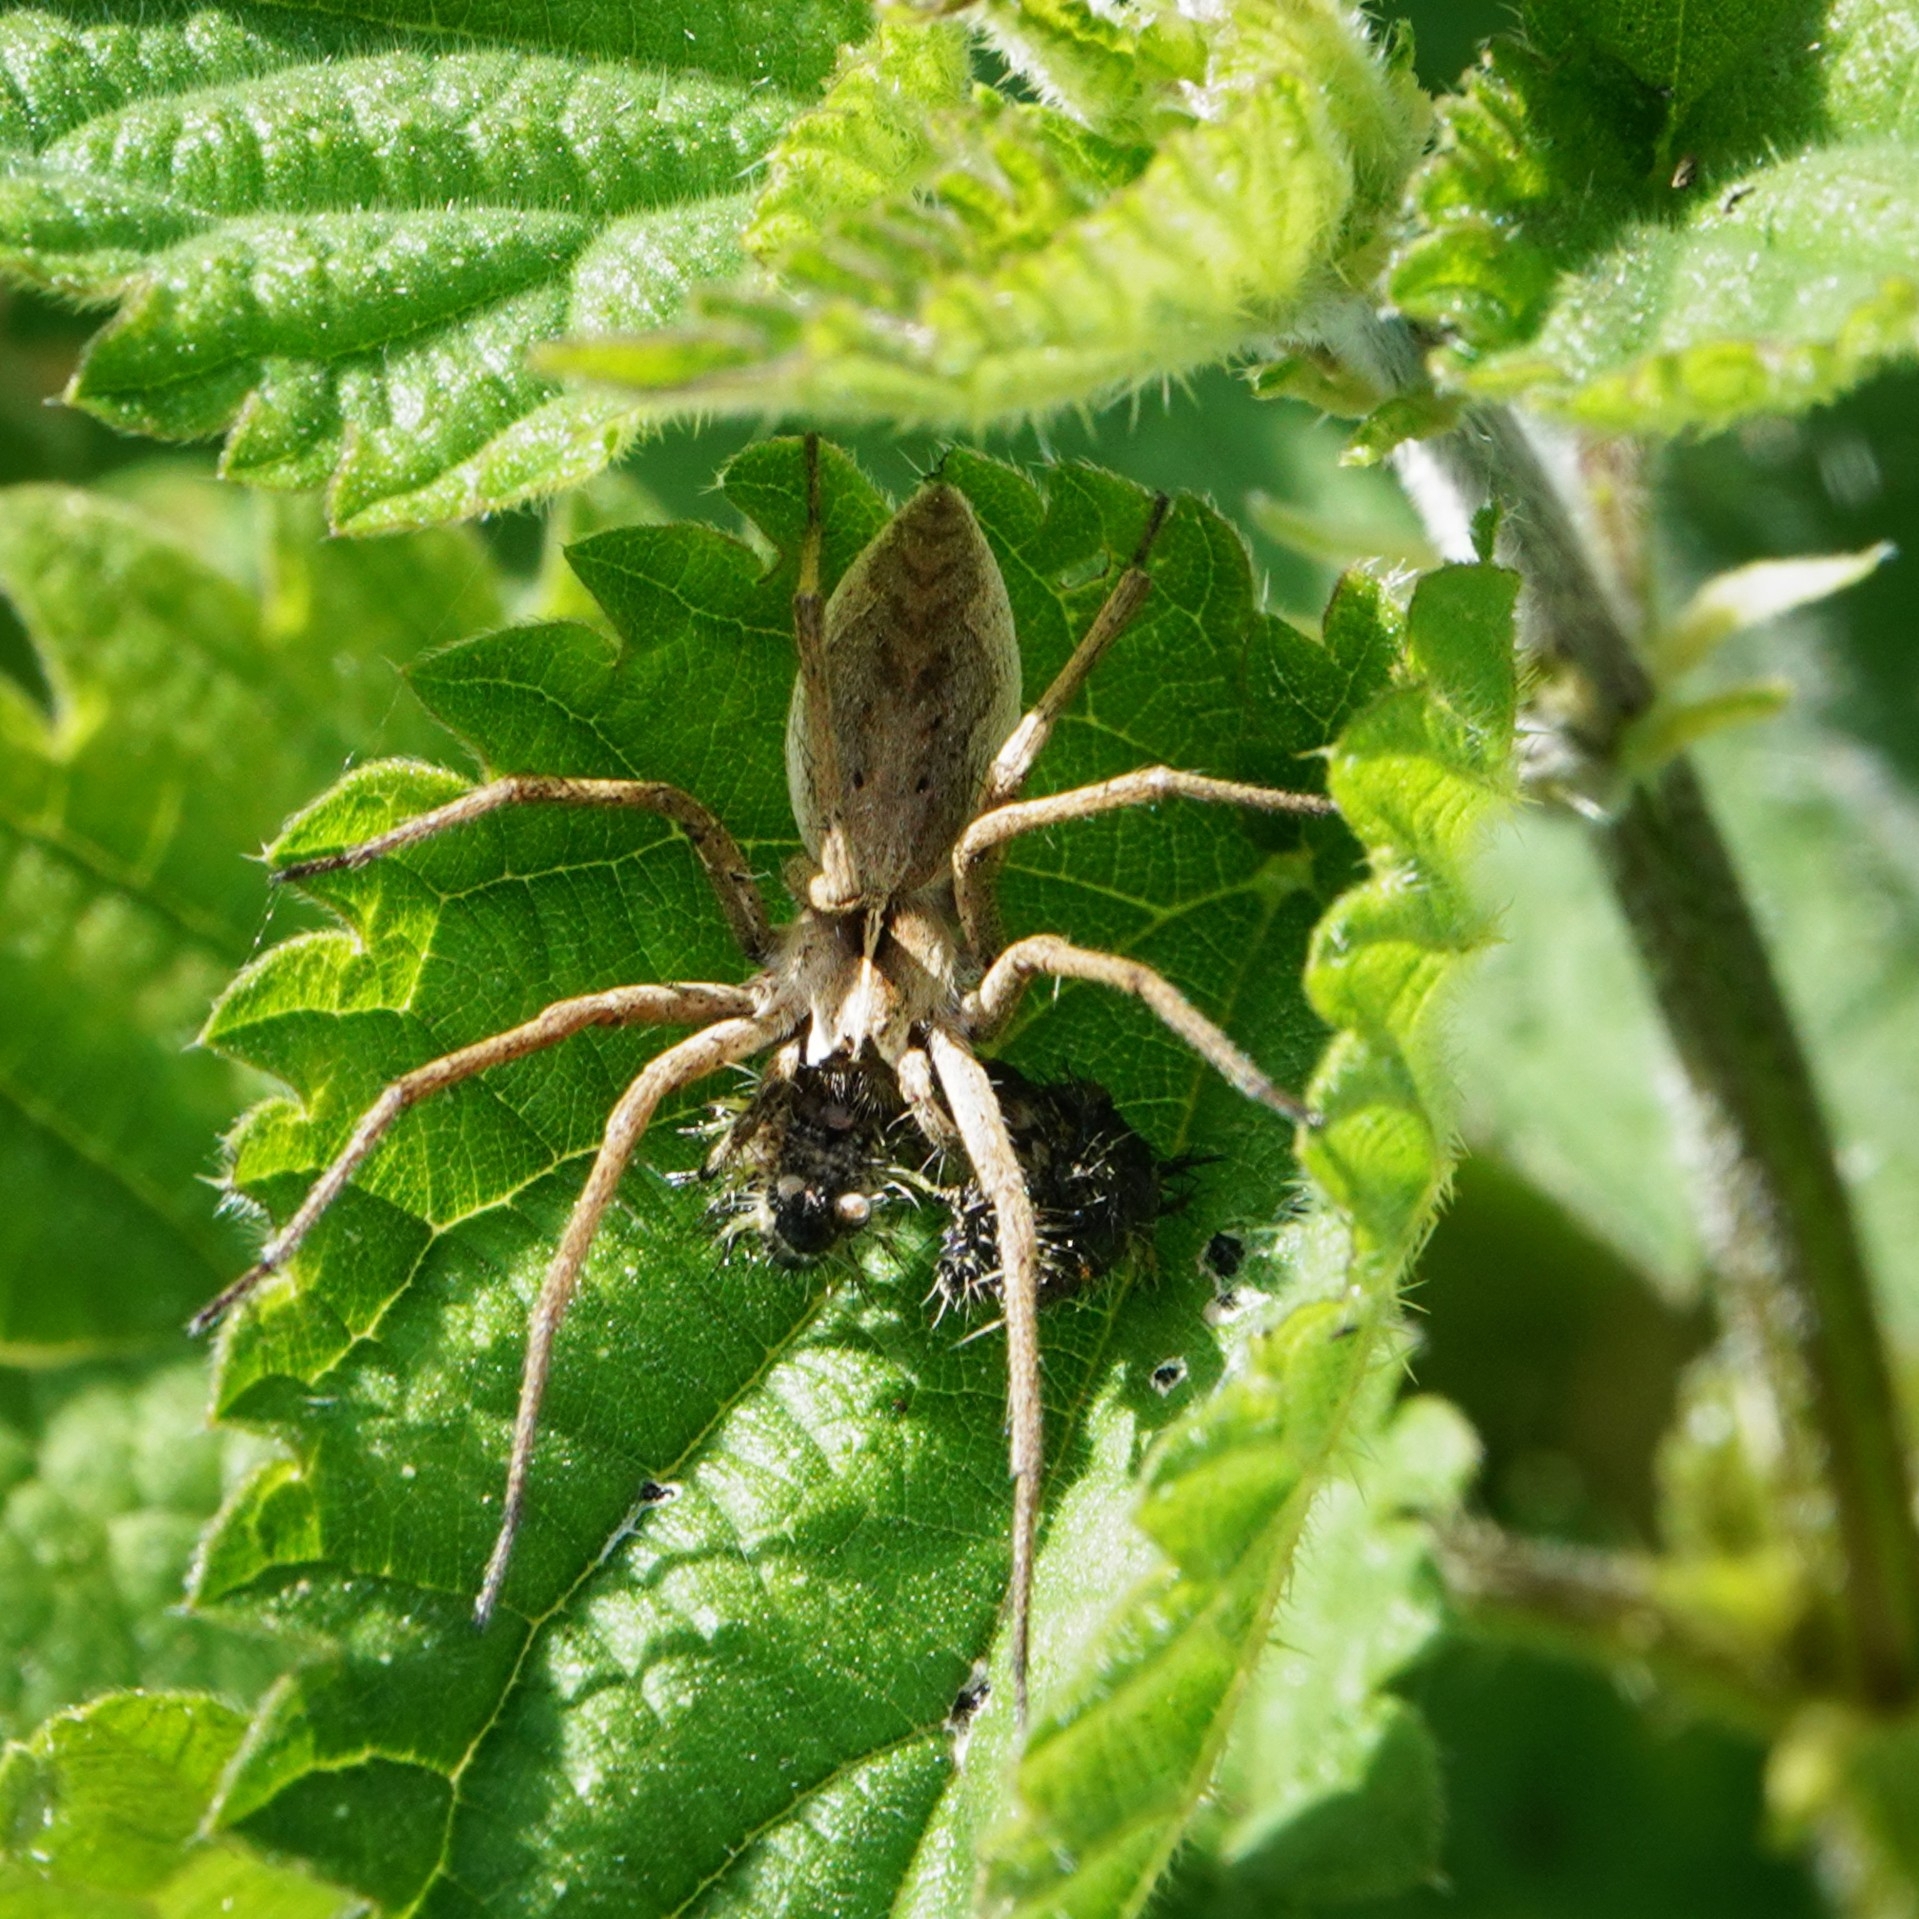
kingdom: Animalia
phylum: Arthropoda
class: Arachnida
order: Araneae
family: Pisauridae
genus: Pisaura
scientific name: Pisaura mirabilis
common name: Tent spider
